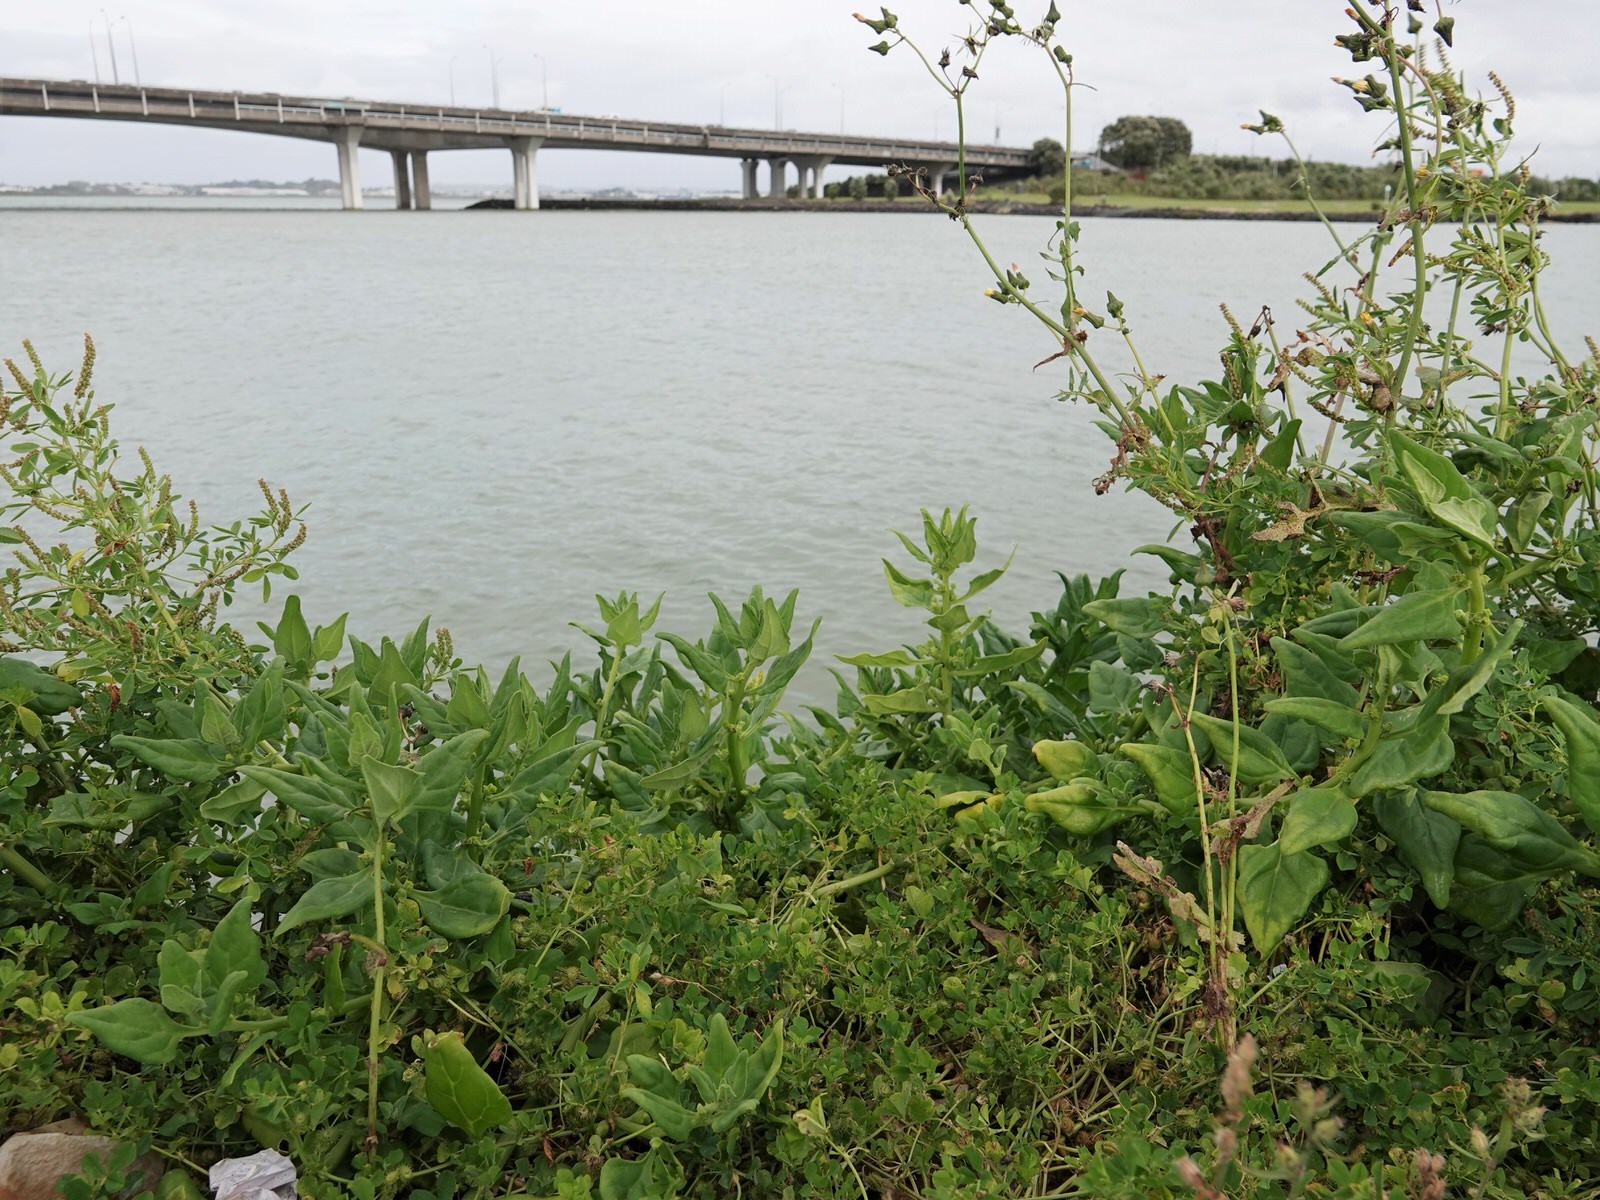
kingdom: Plantae
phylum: Tracheophyta
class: Magnoliopsida
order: Caryophyllales
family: Aizoaceae
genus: Tetragonia
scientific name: Tetragonia tetragonoides
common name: New zealand-spinach
